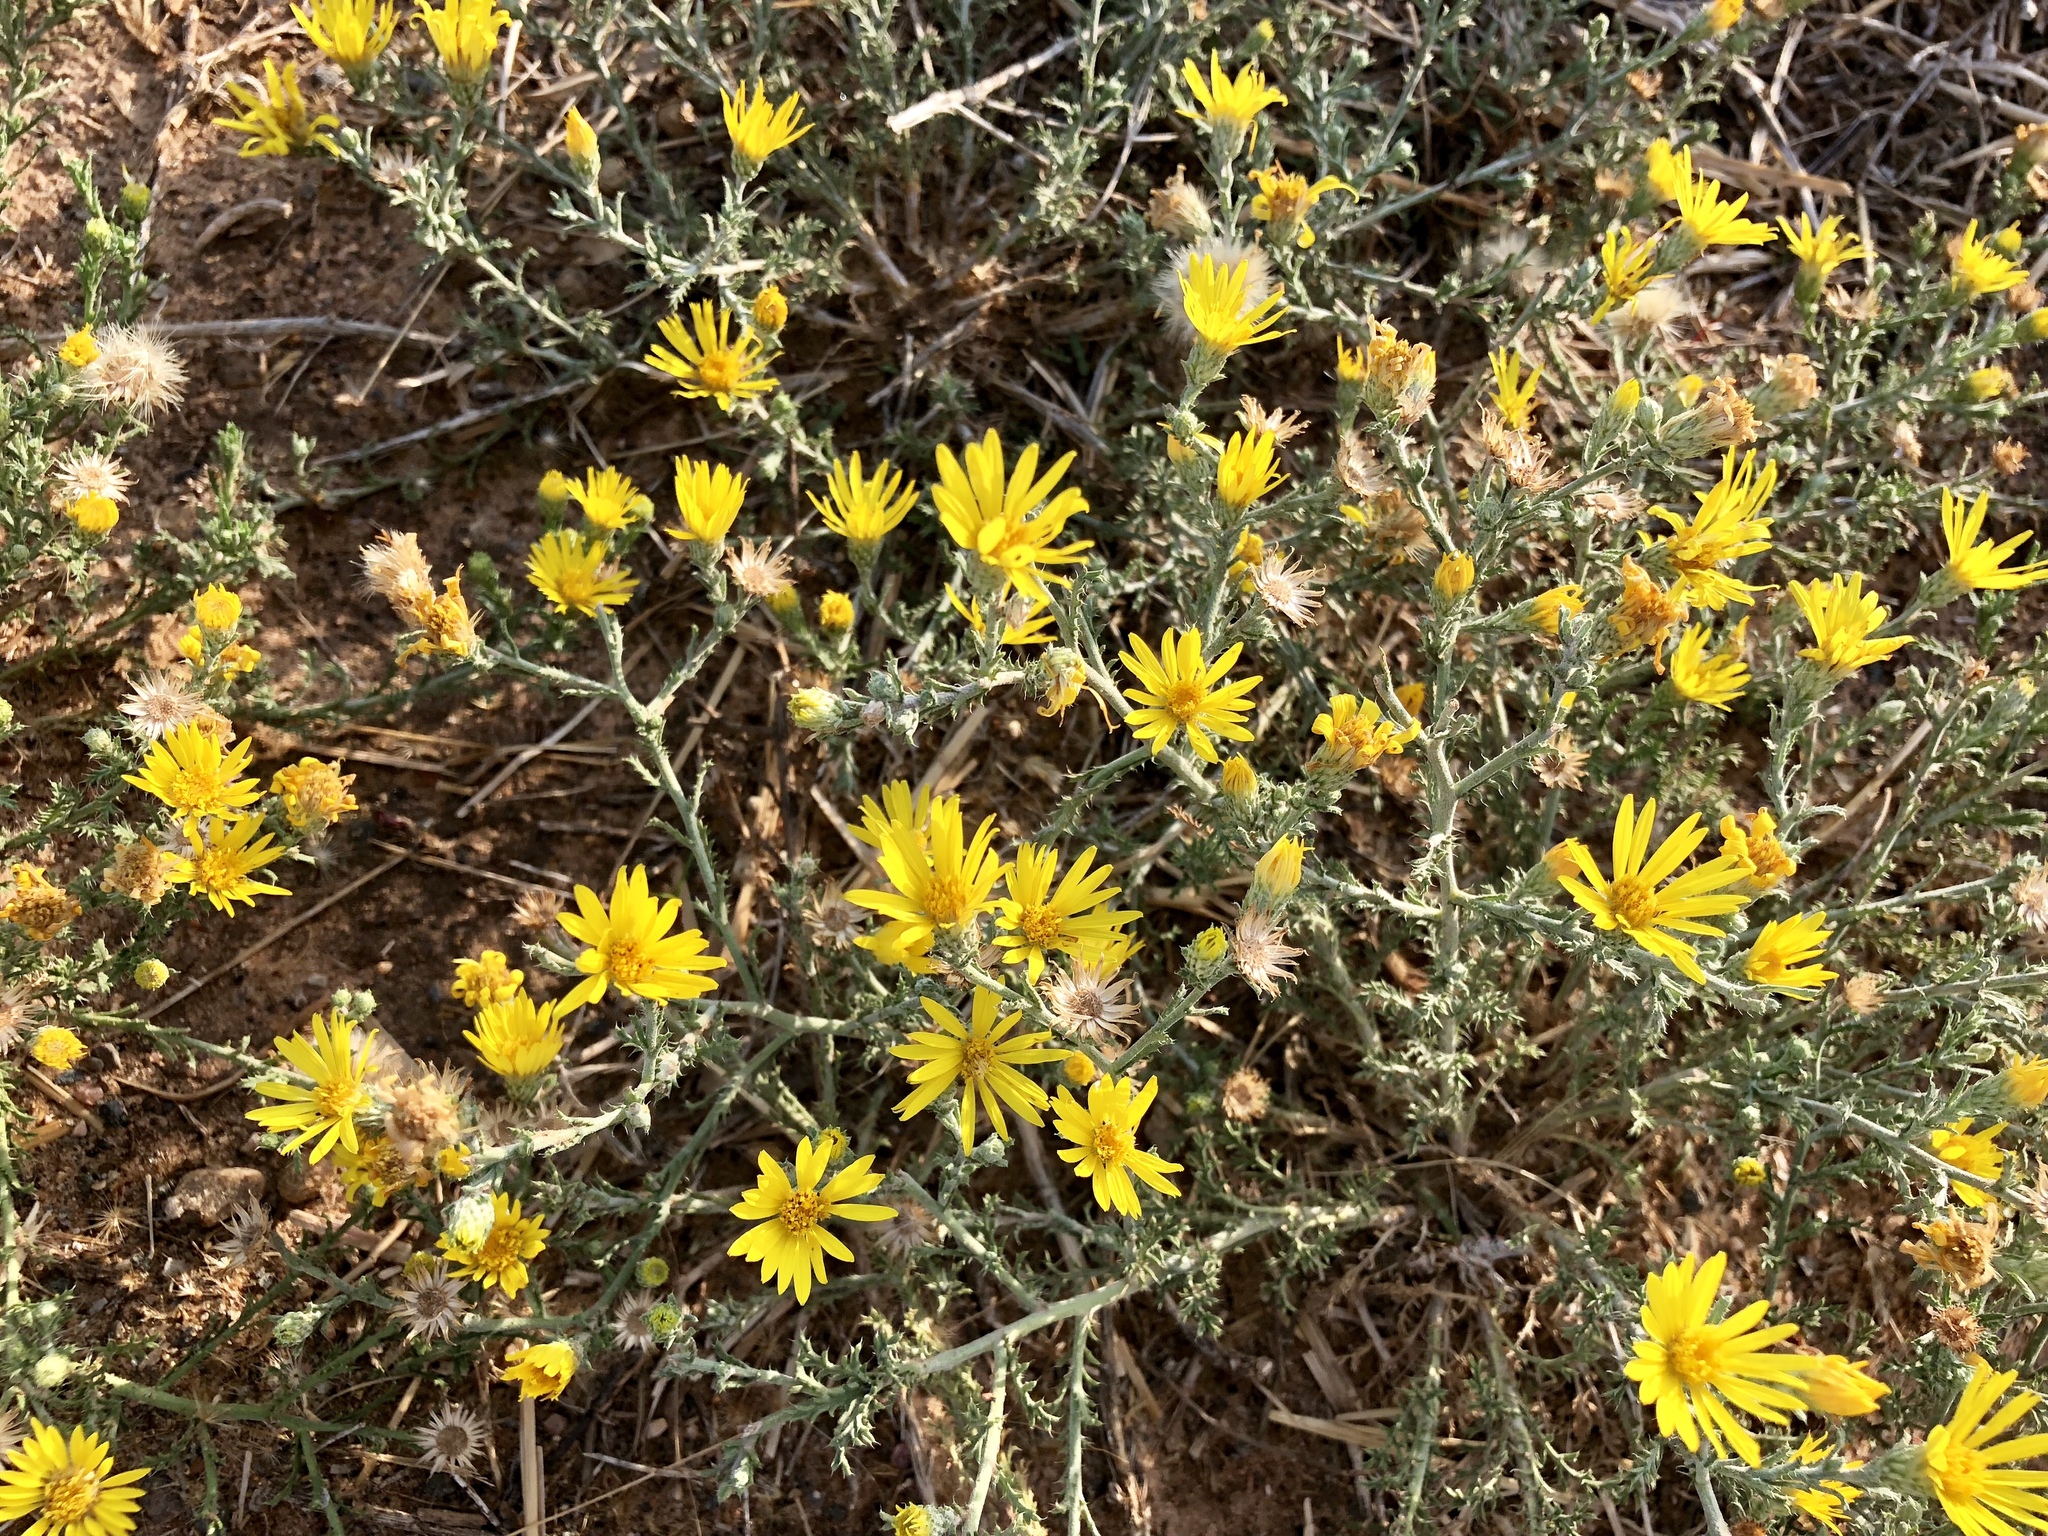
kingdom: Plantae
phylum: Tracheophyta
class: Magnoliopsida
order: Asterales
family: Asteraceae
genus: Xanthisma
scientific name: Xanthisma spinulosum
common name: Spiny goldenweed
